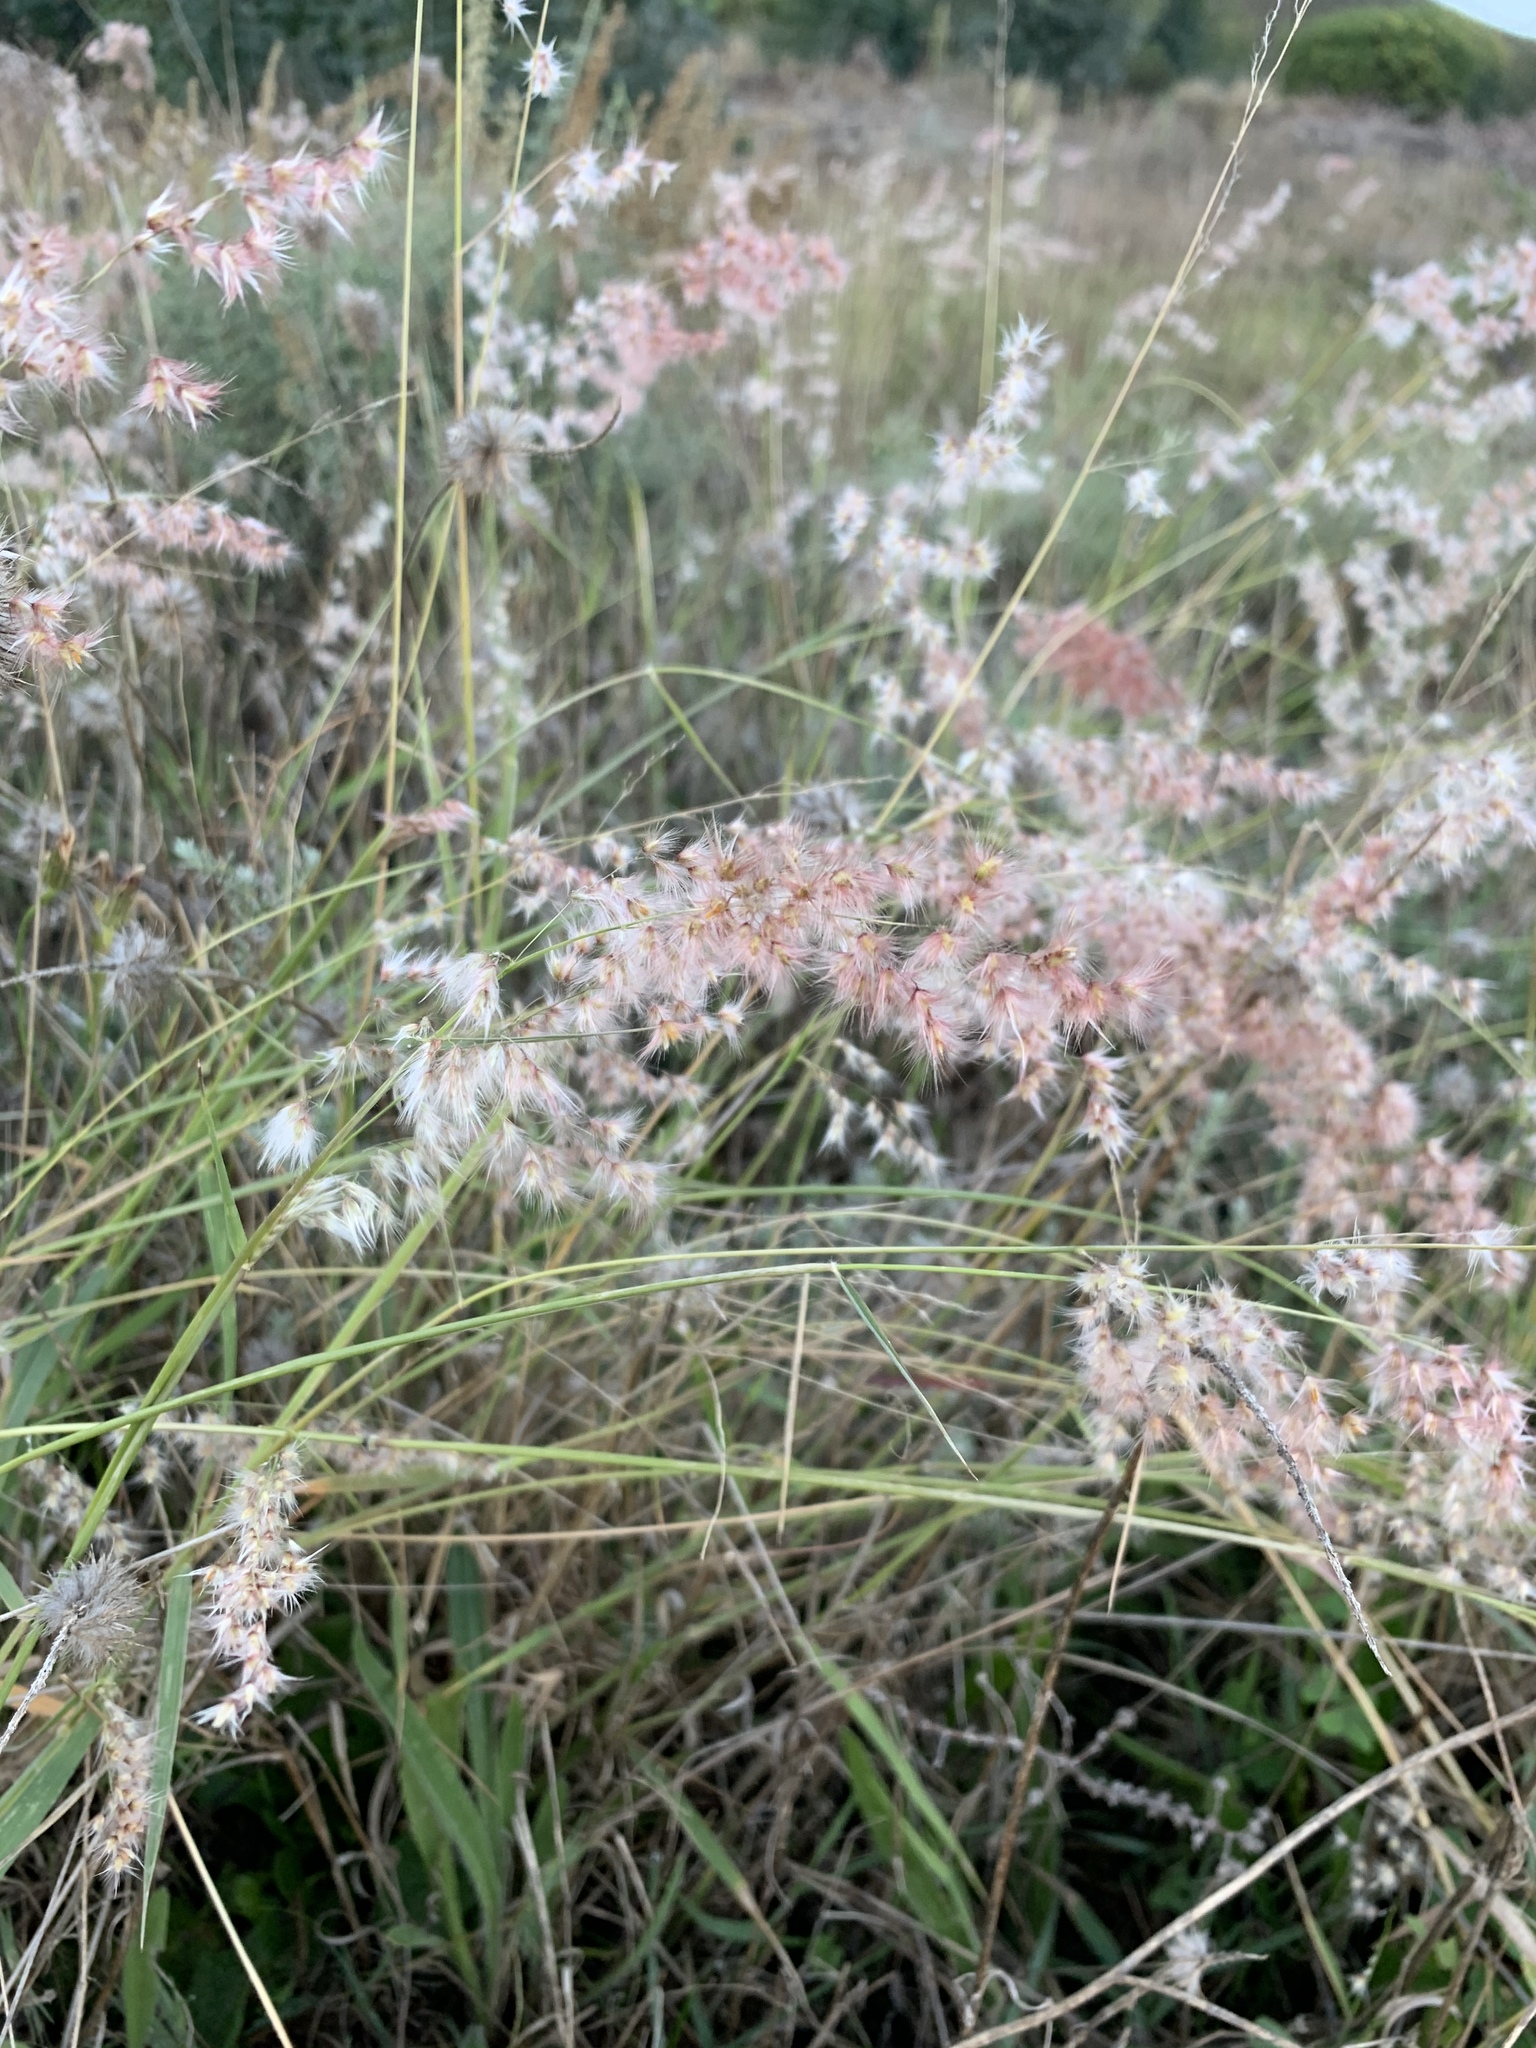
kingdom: Plantae
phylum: Tracheophyta
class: Liliopsida
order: Poales
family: Poaceae
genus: Melinis
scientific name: Melinis repens
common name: Rose natal grass
